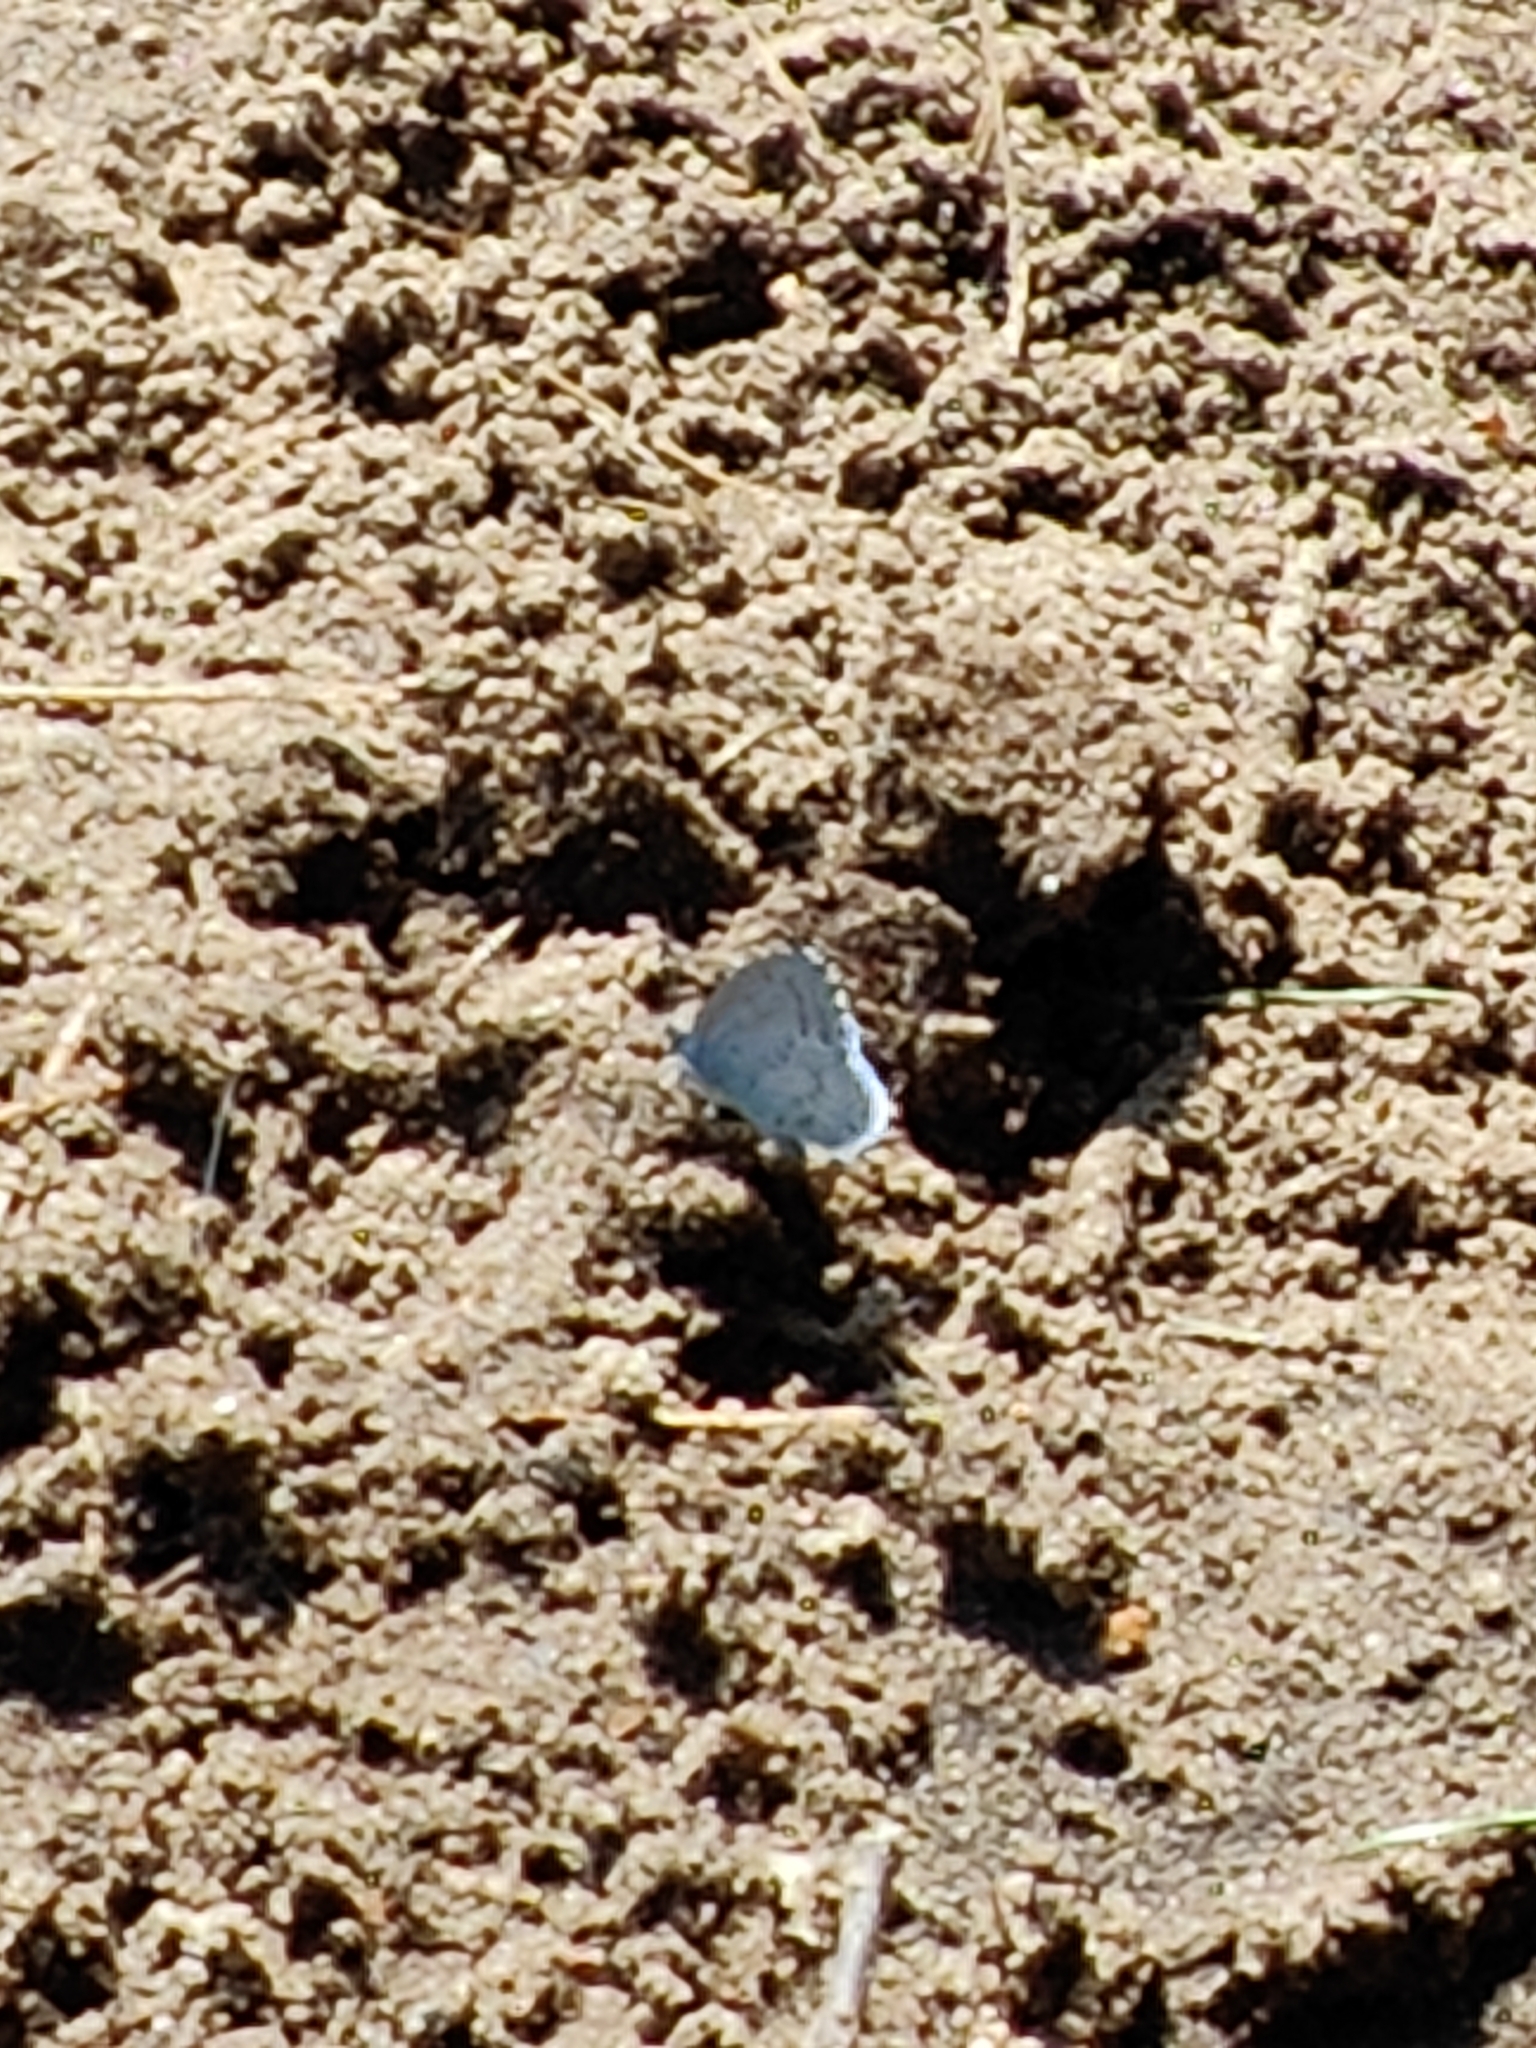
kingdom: Animalia
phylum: Arthropoda
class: Insecta
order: Lepidoptera
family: Lycaenidae
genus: Celastrina
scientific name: Celastrina argiolus
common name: Holly blue
